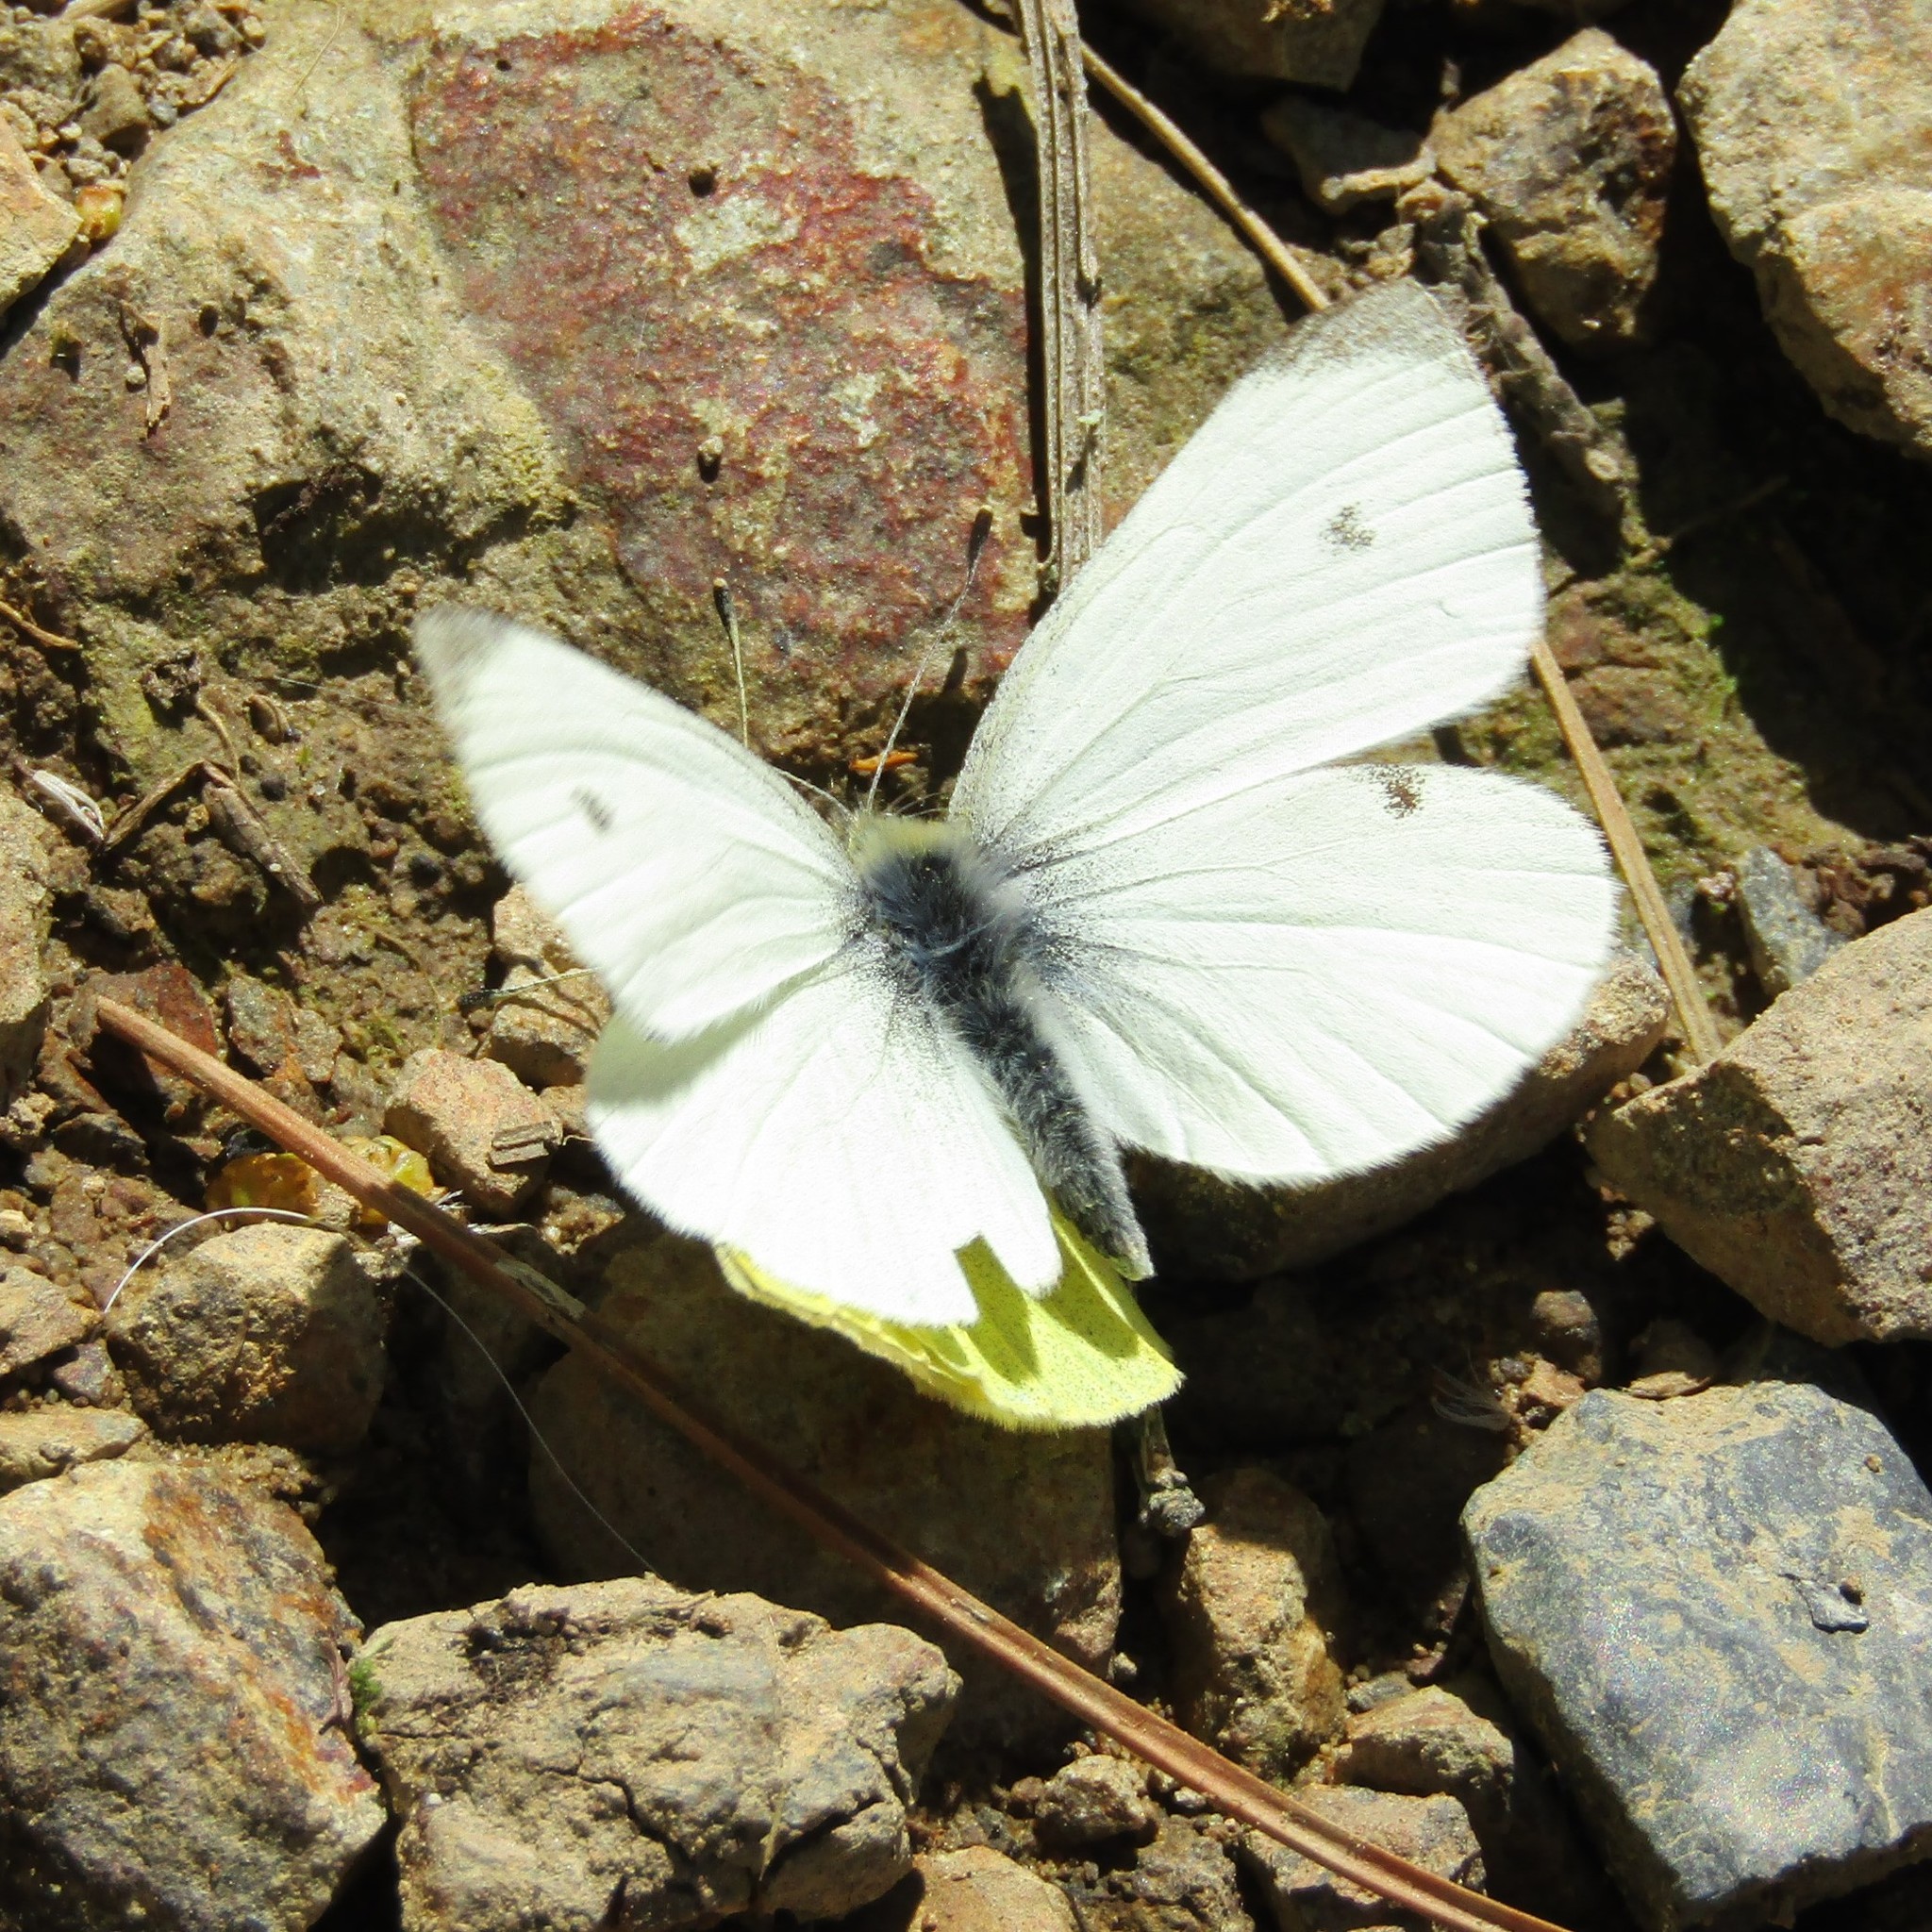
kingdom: Animalia
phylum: Arthropoda
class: Insecta
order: Lepidoptera
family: Pieridae
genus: Pieris
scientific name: Pieris rapae
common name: Small white
